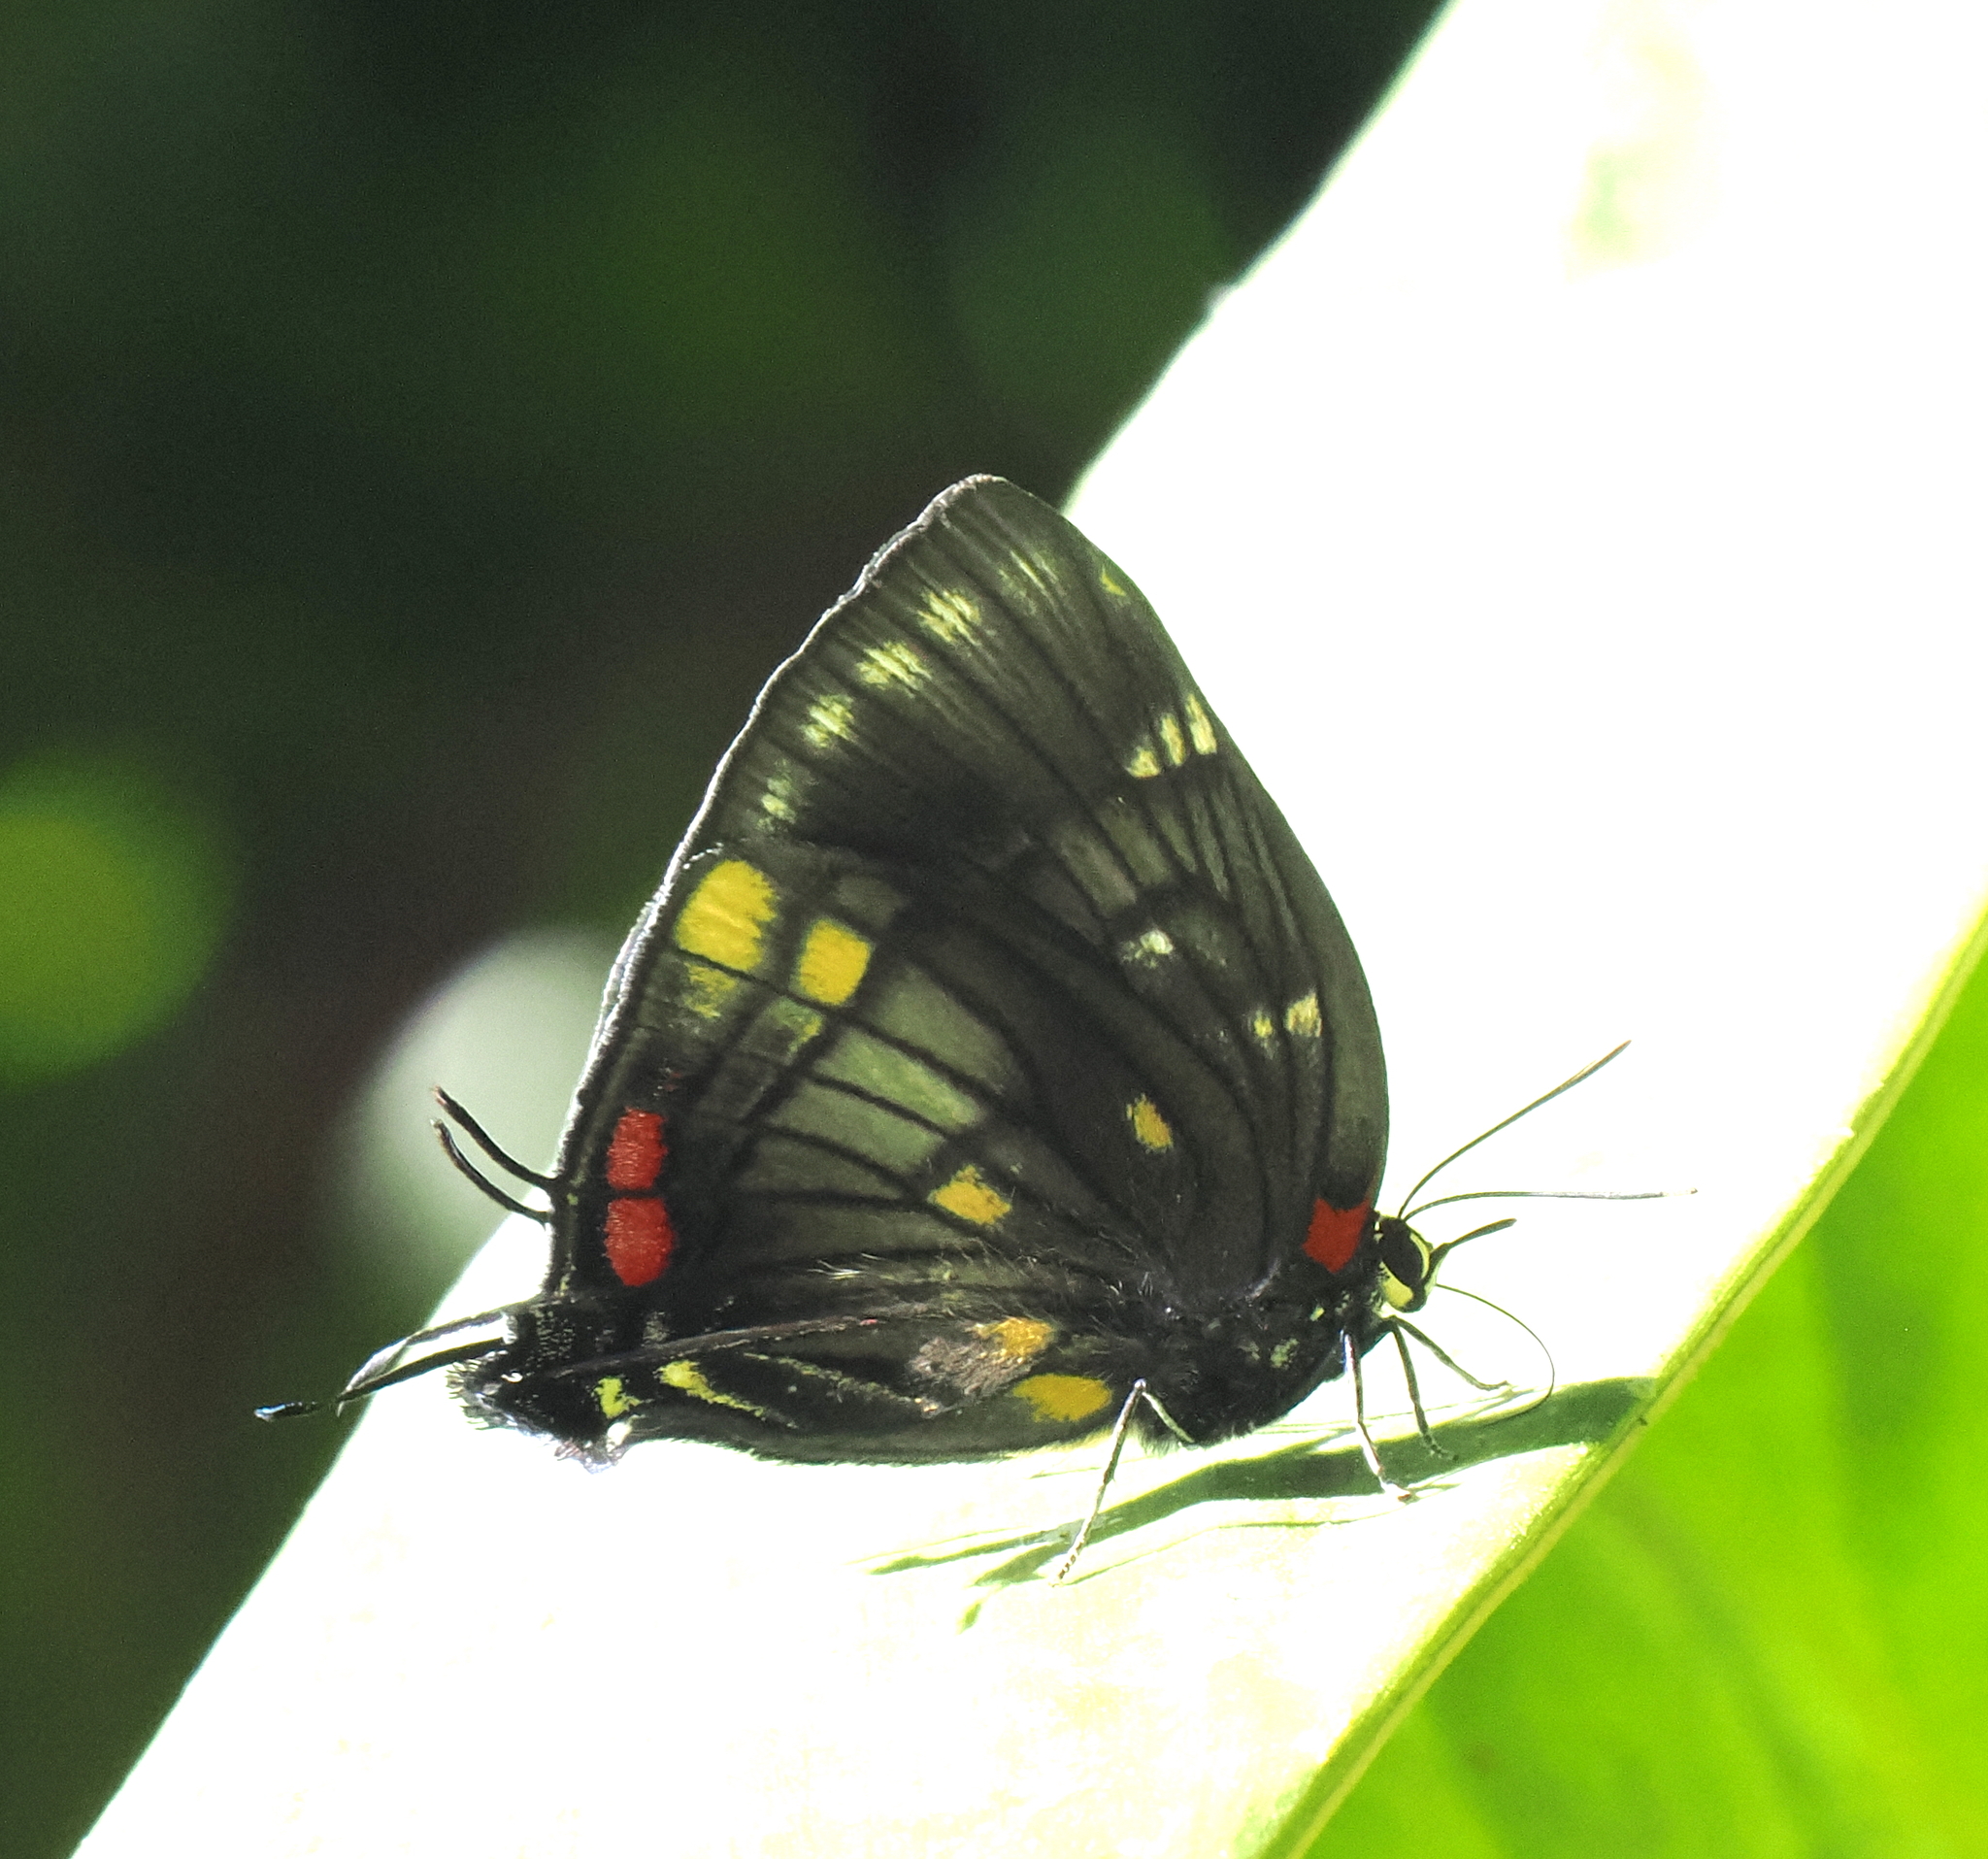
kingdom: Animalia
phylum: Arthropoda
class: Insecta
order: Lepidoptera
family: Lycaenidae
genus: Panthiades
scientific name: Panthiades paphlagon
